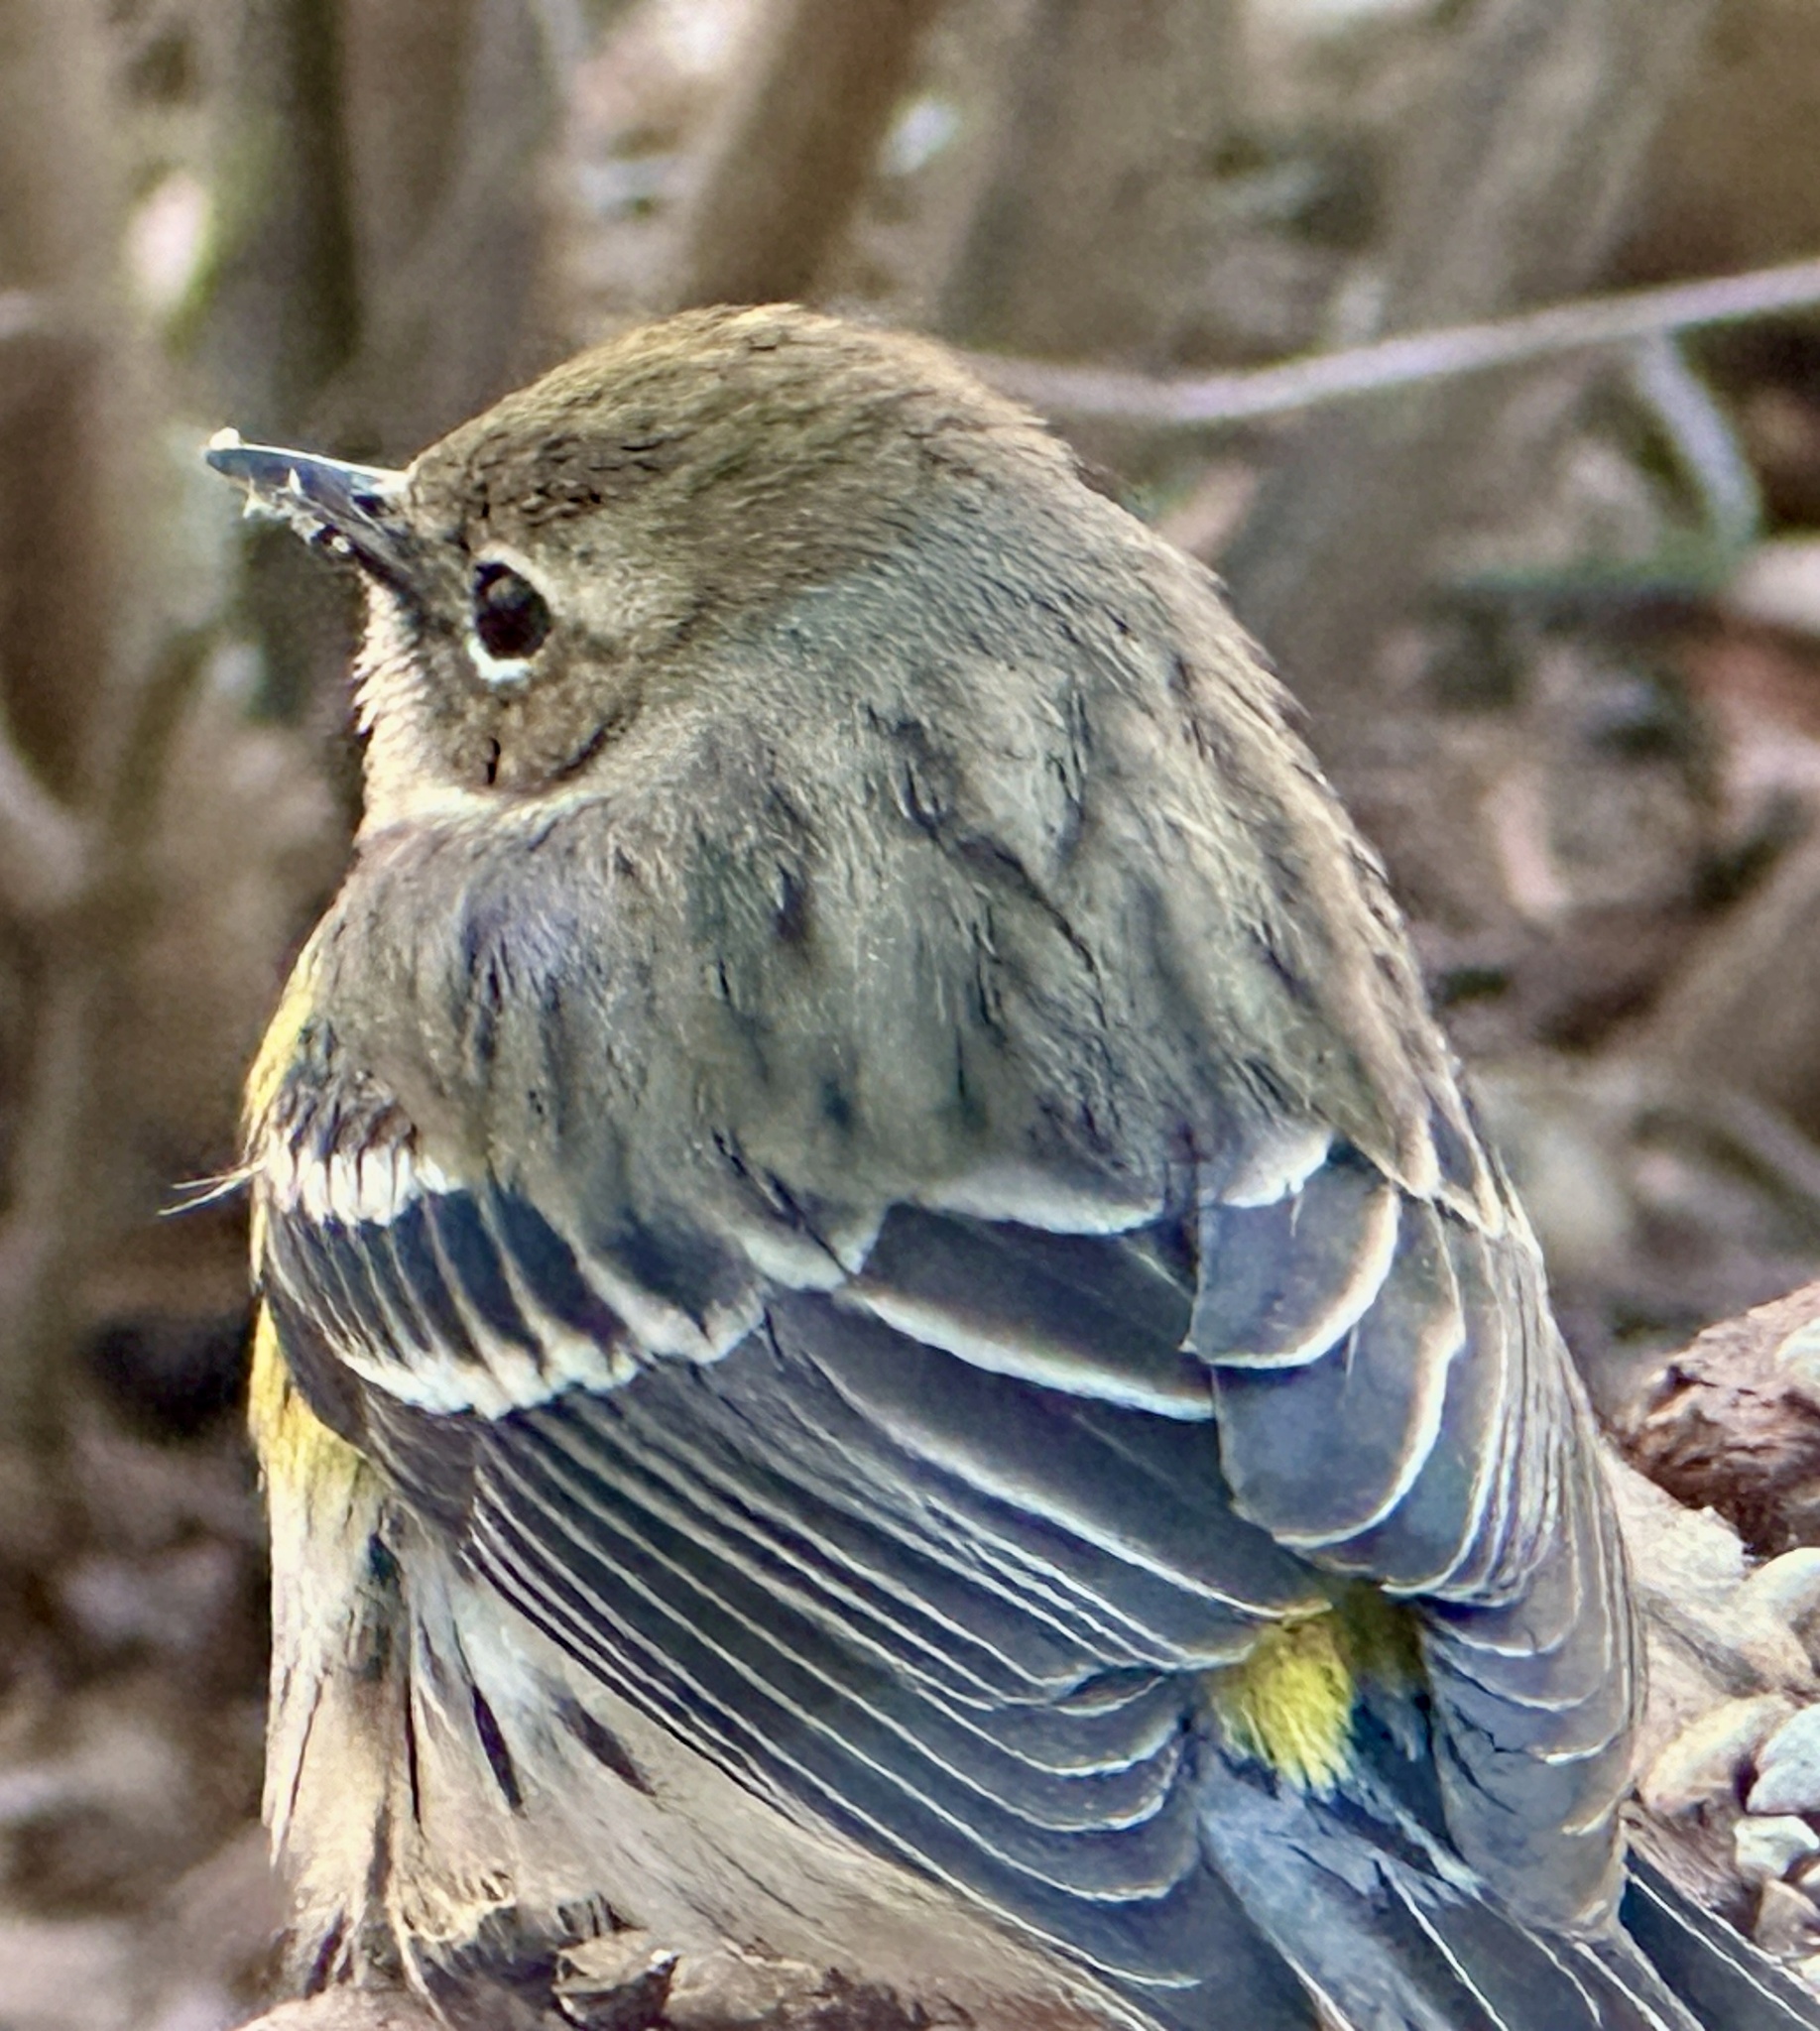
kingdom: Animalia
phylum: Chordata
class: Aves
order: Passeriformes
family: Parulidae
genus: Setophaga
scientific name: Setophaga coronata
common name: Myrtle warbler
